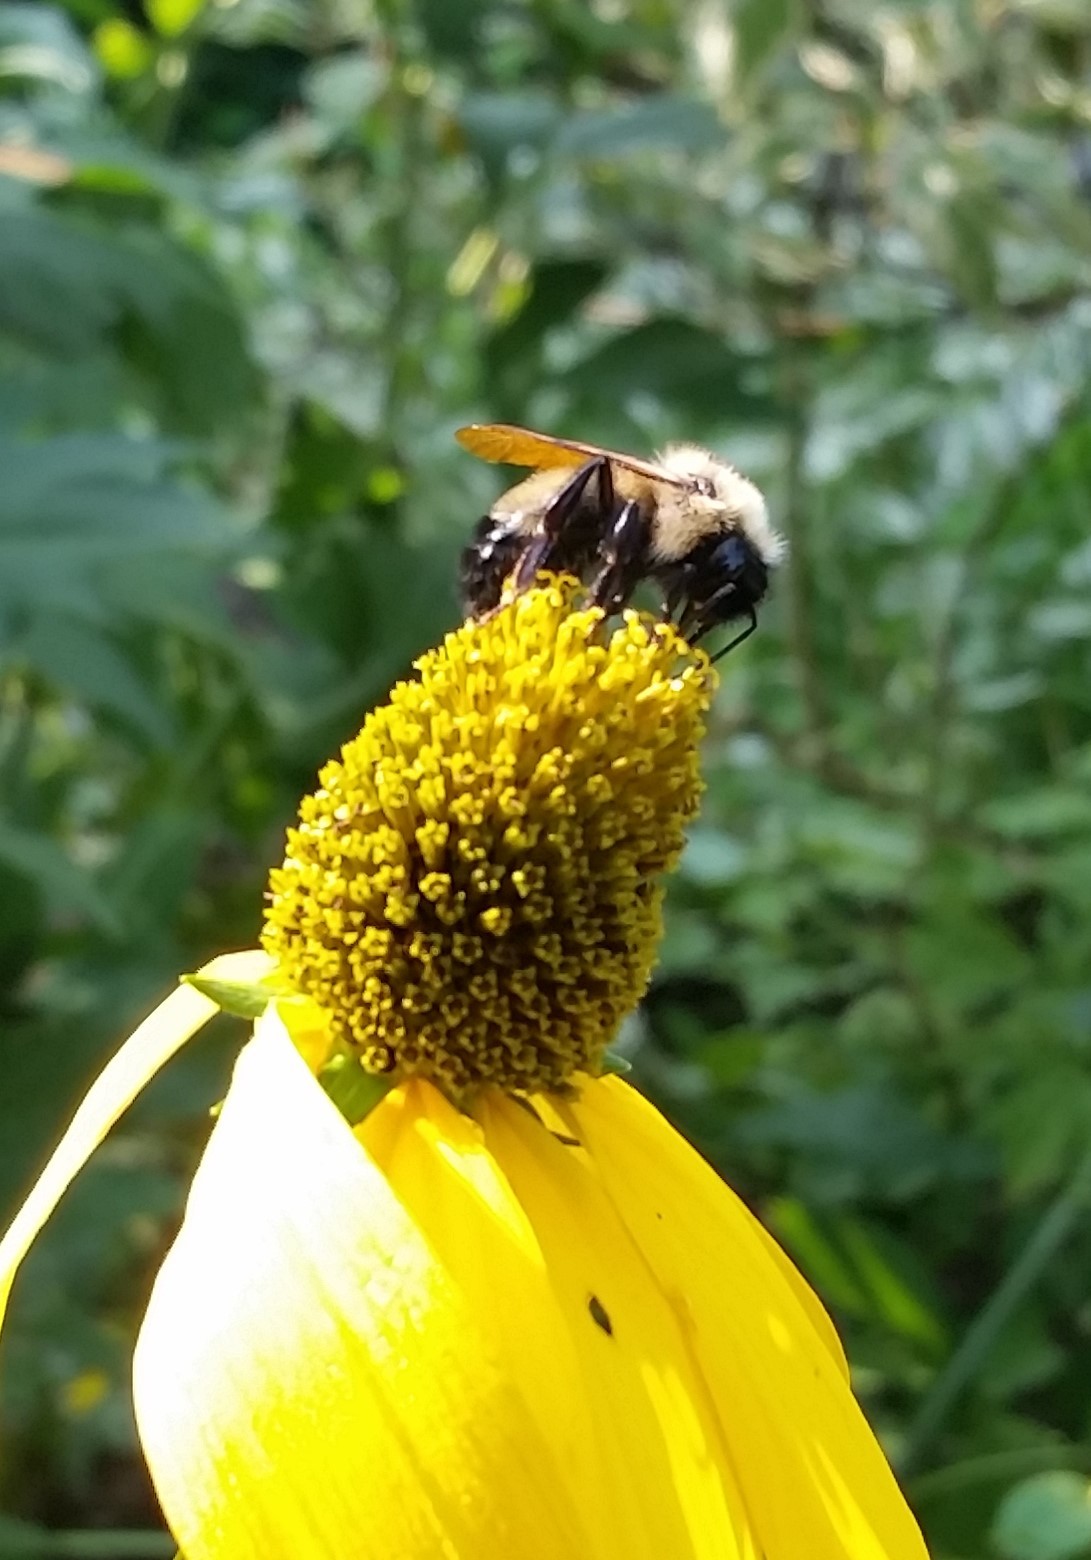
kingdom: Animalia
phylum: Arthropoda
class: Insecta
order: Hymenoptera
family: Apidae
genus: Bombus
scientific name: Bombus citrinus
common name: Lemon cuckoo bumble bee
